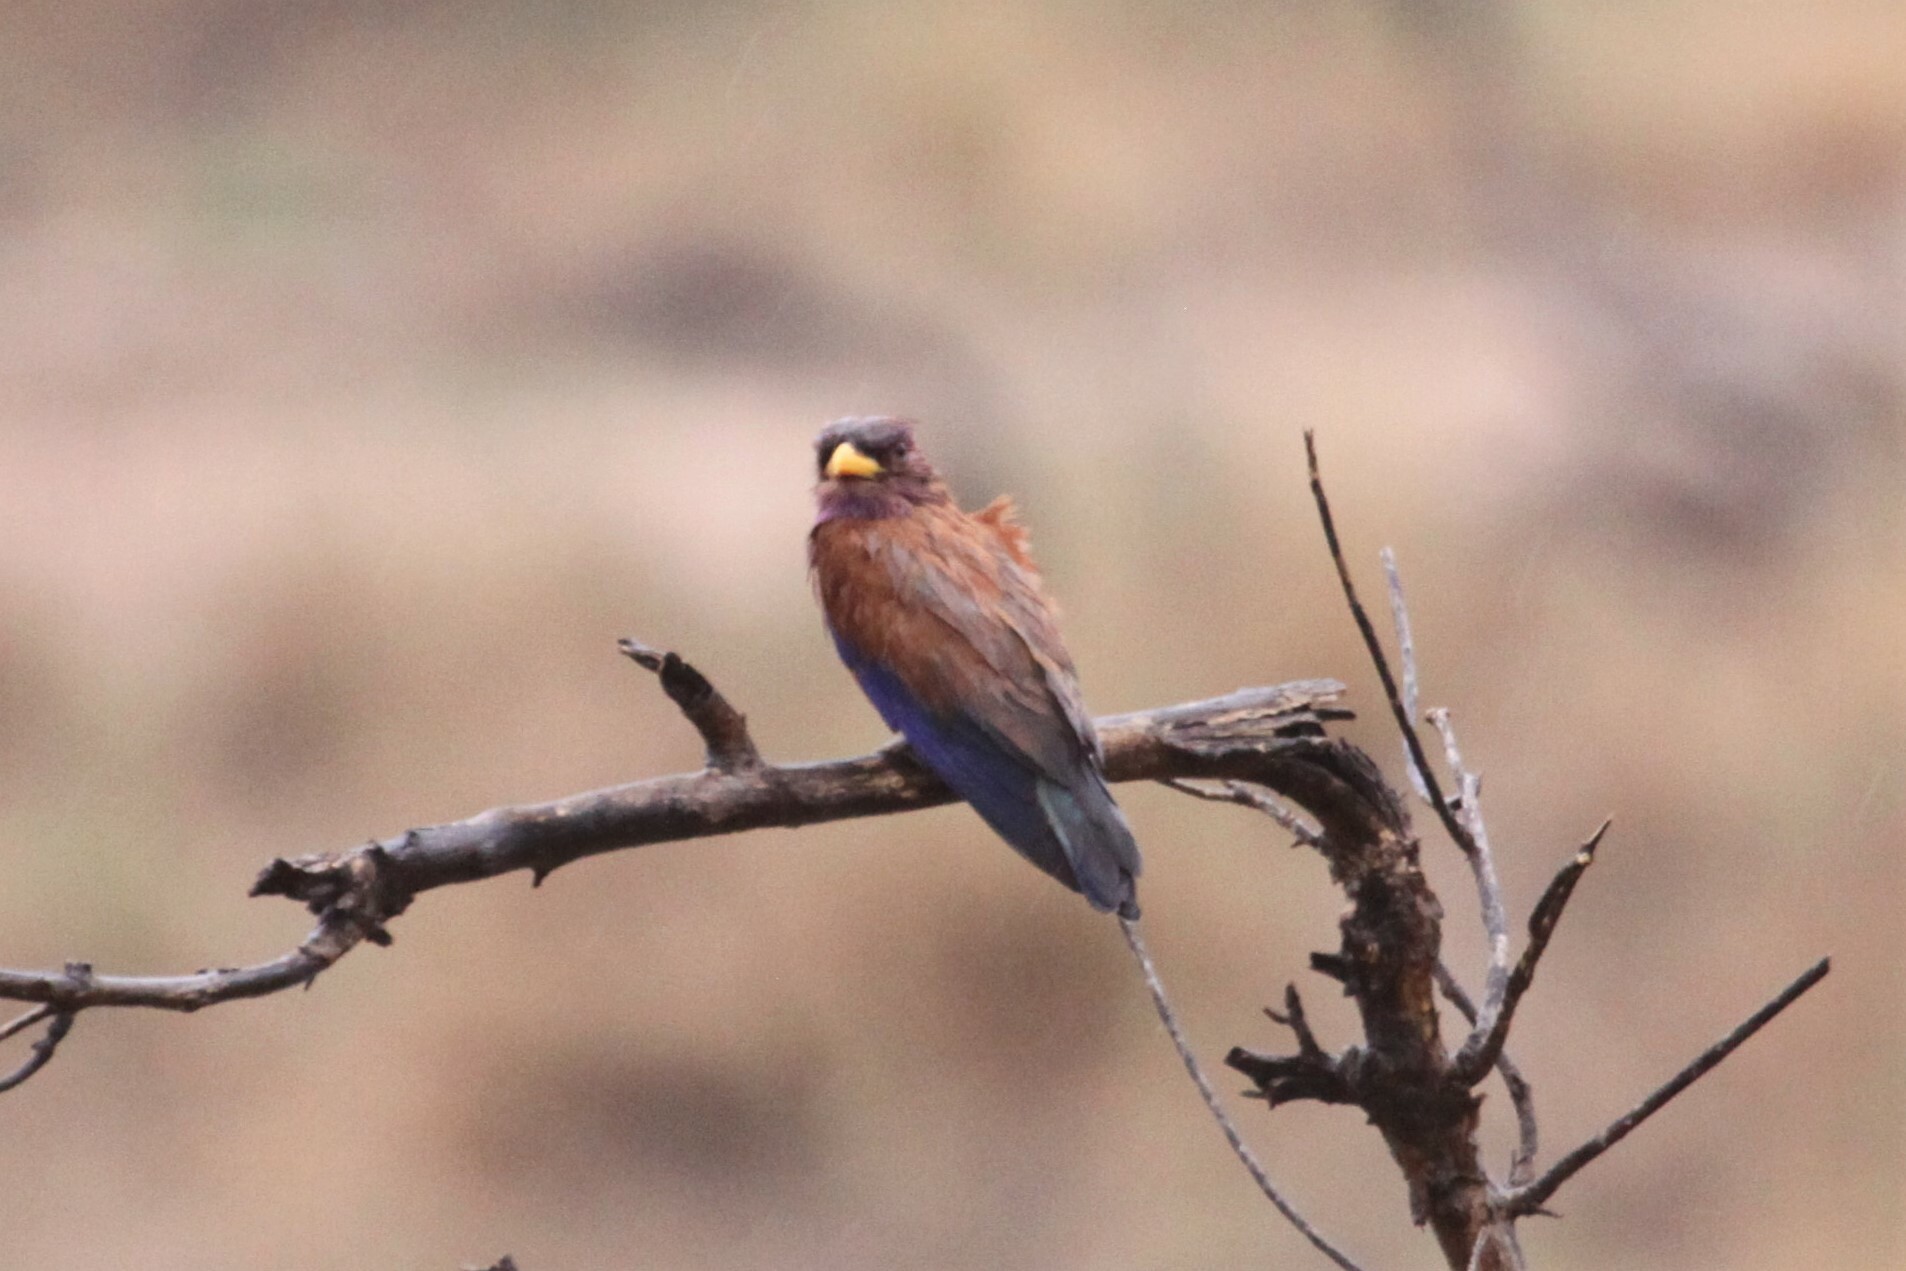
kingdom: Animalia
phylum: Chordata
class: Aves
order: Coraciiformes
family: Coraciidae
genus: Eurystomus
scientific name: Eurystomus glaucurus
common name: Broad-billed roller
